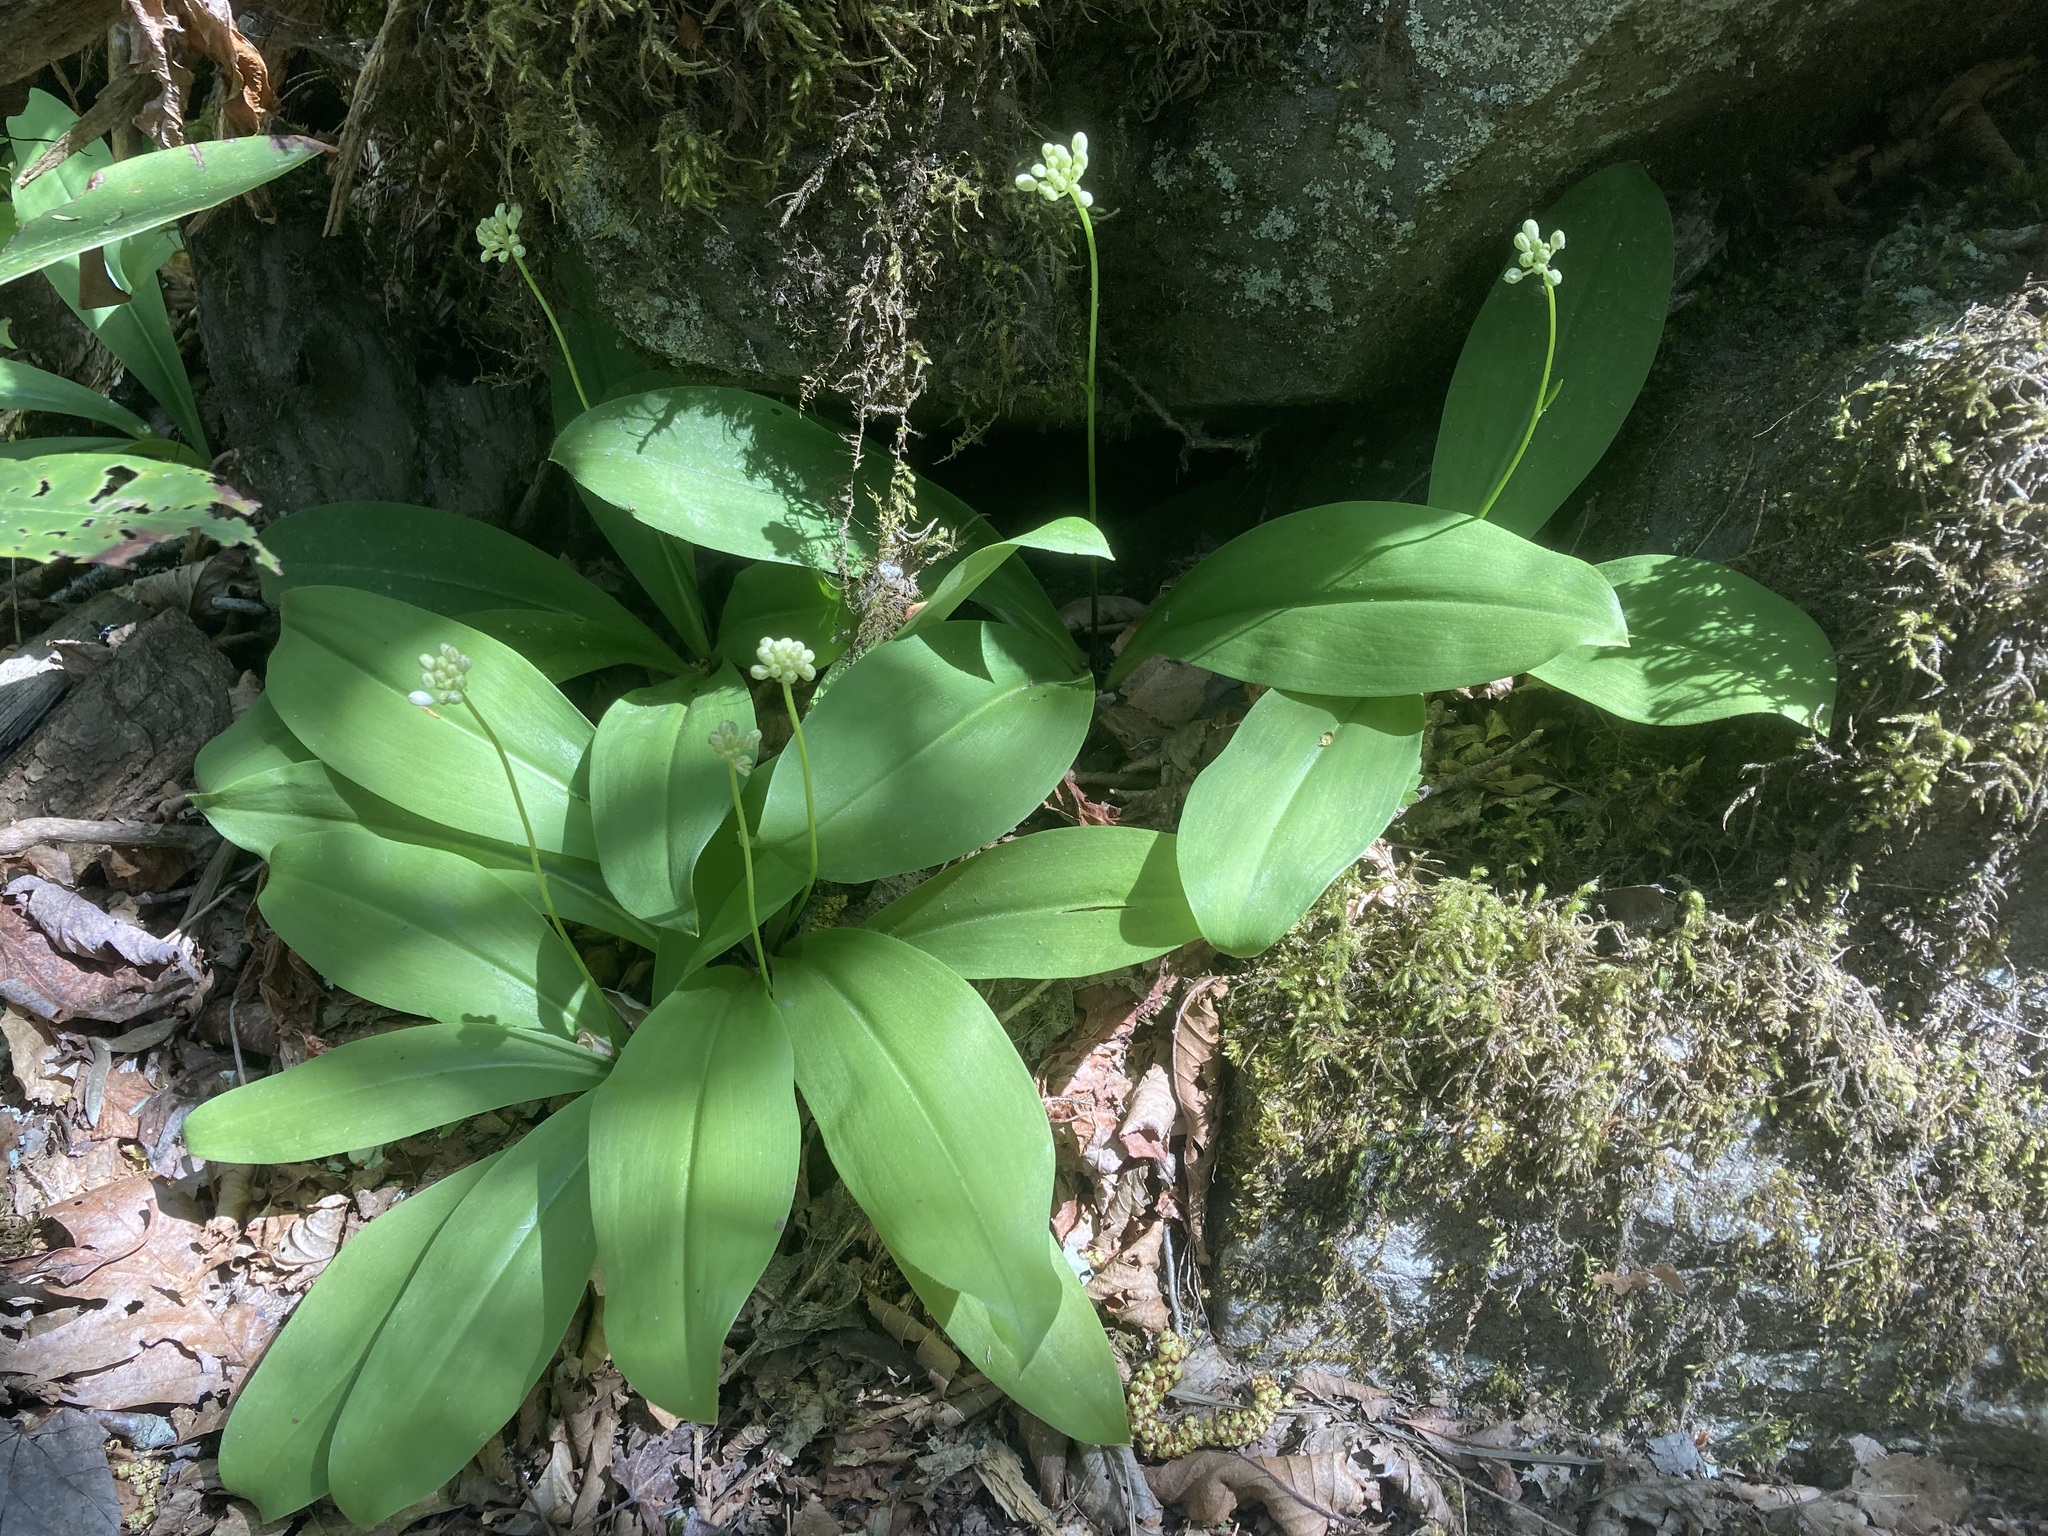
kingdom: Plantae
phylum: Tracheophyta
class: Liliopsida
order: Liliales
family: Liliaceae
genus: Clintonia
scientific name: Clintonia umbellulata
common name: Speckle wood-lily
